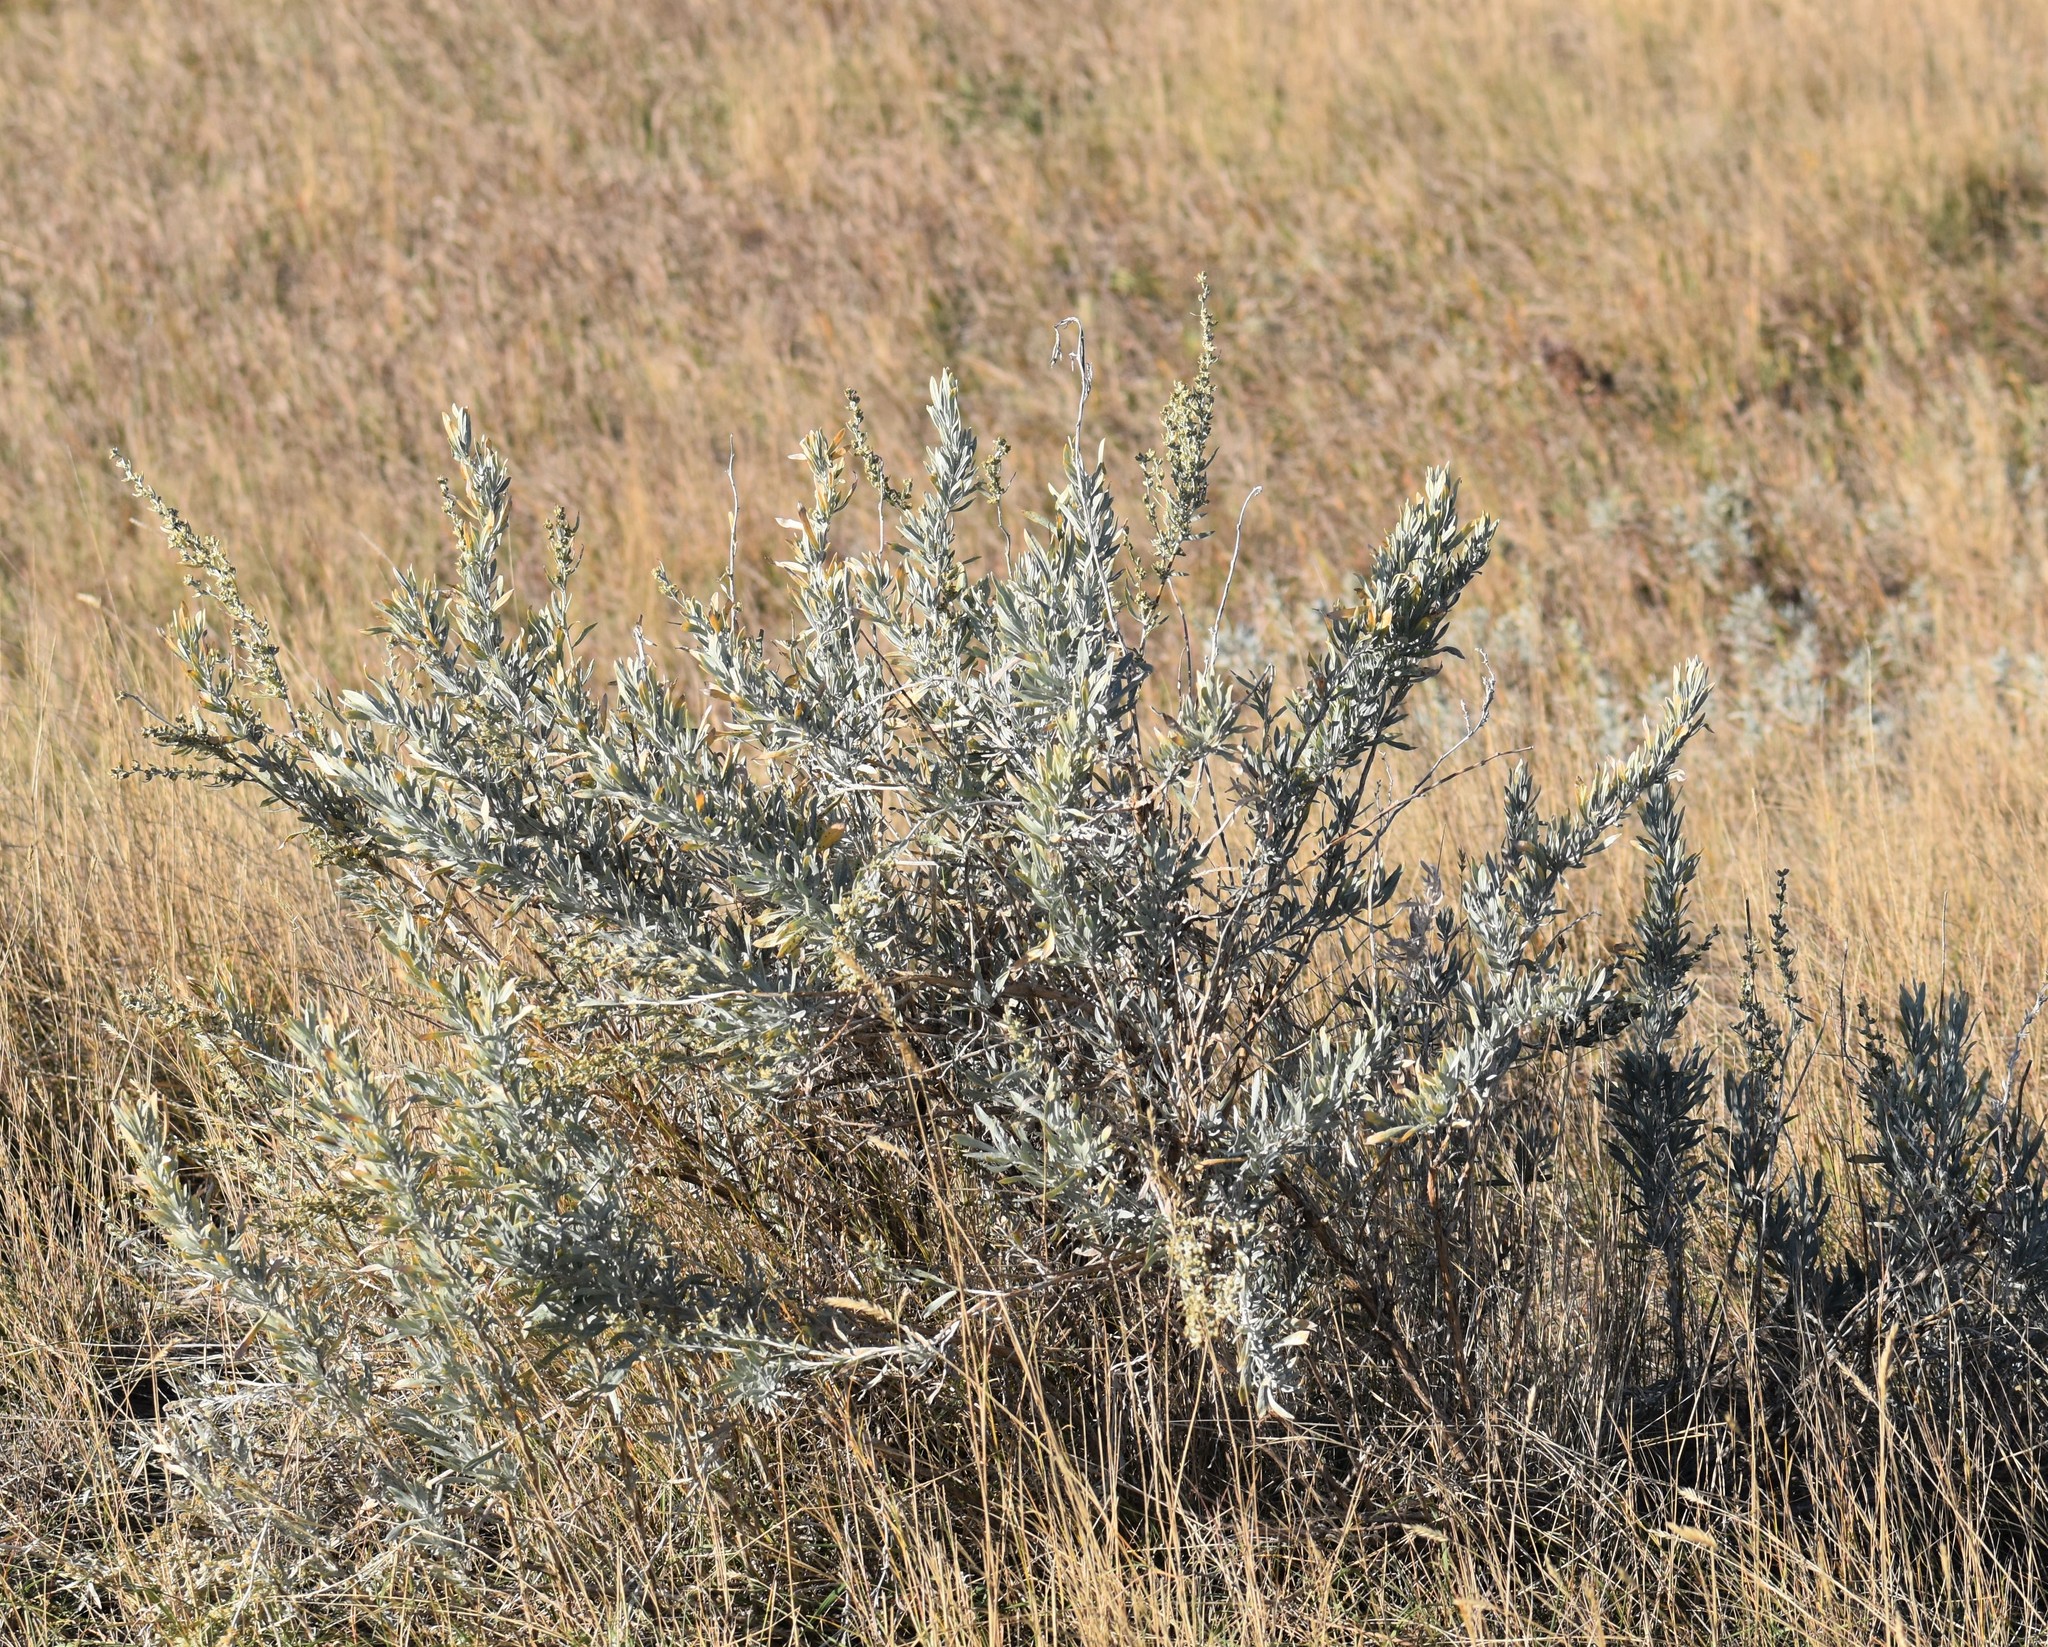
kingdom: Plantae
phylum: Tracheophyta
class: Magnoliopsida
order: Asterales
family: Asteraceae
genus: Artemisia
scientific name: Artemisia cana
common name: Silver sagebrush
